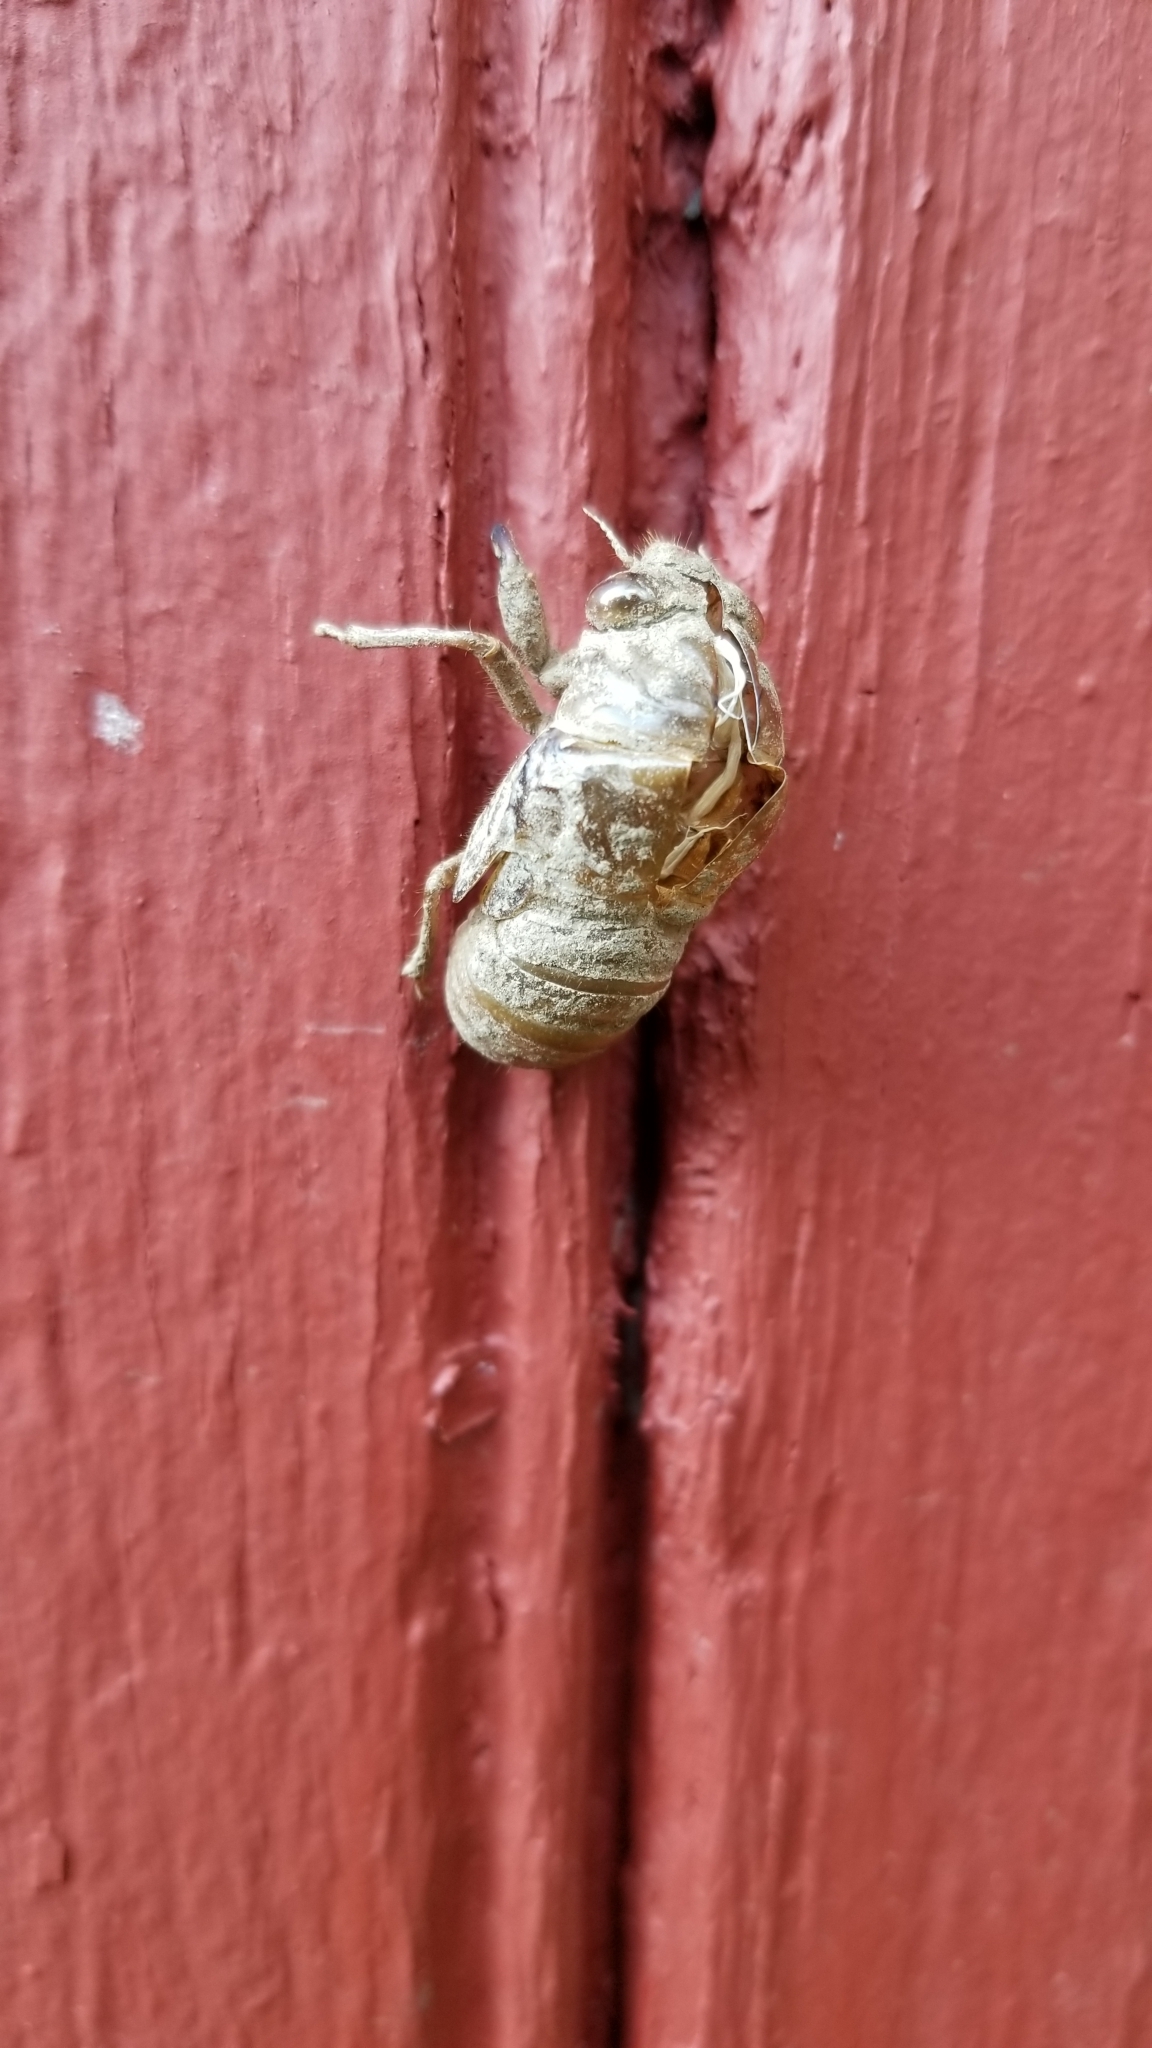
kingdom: Animalia
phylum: Arthropoda
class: Insecta
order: Hemiptera
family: Cicadidae
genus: Neotibicen
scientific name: Neotibicen tibicen
